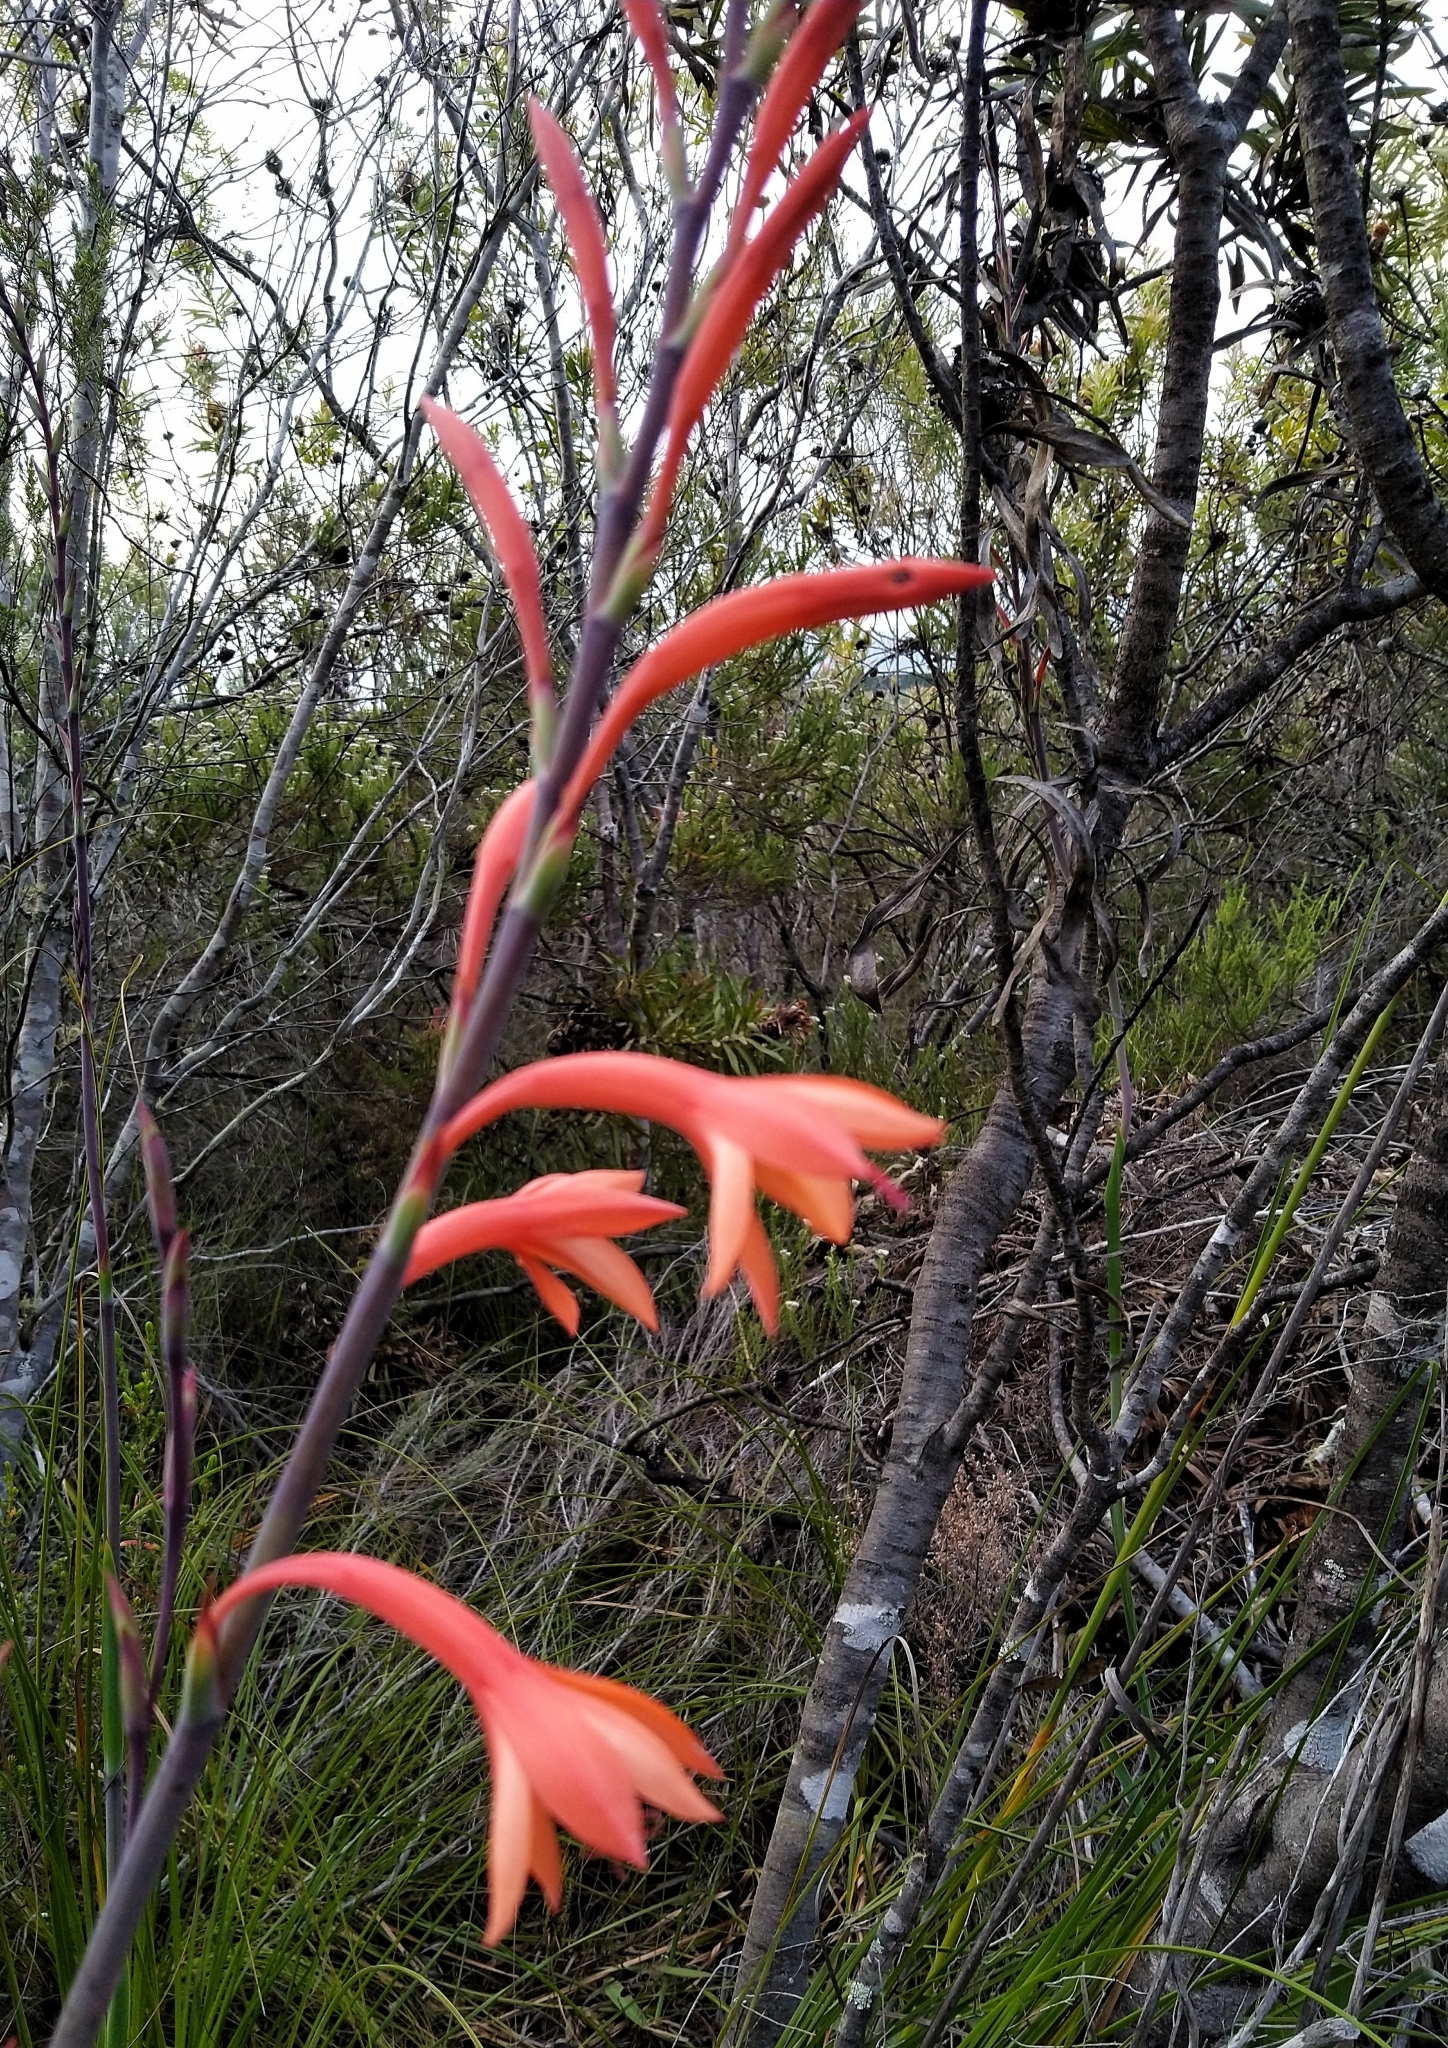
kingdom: Plantae
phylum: Tracheophyta
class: Liliopsida
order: Asparagales
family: Iridaceae
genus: Watsonia
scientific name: Watsonia fourcadei
